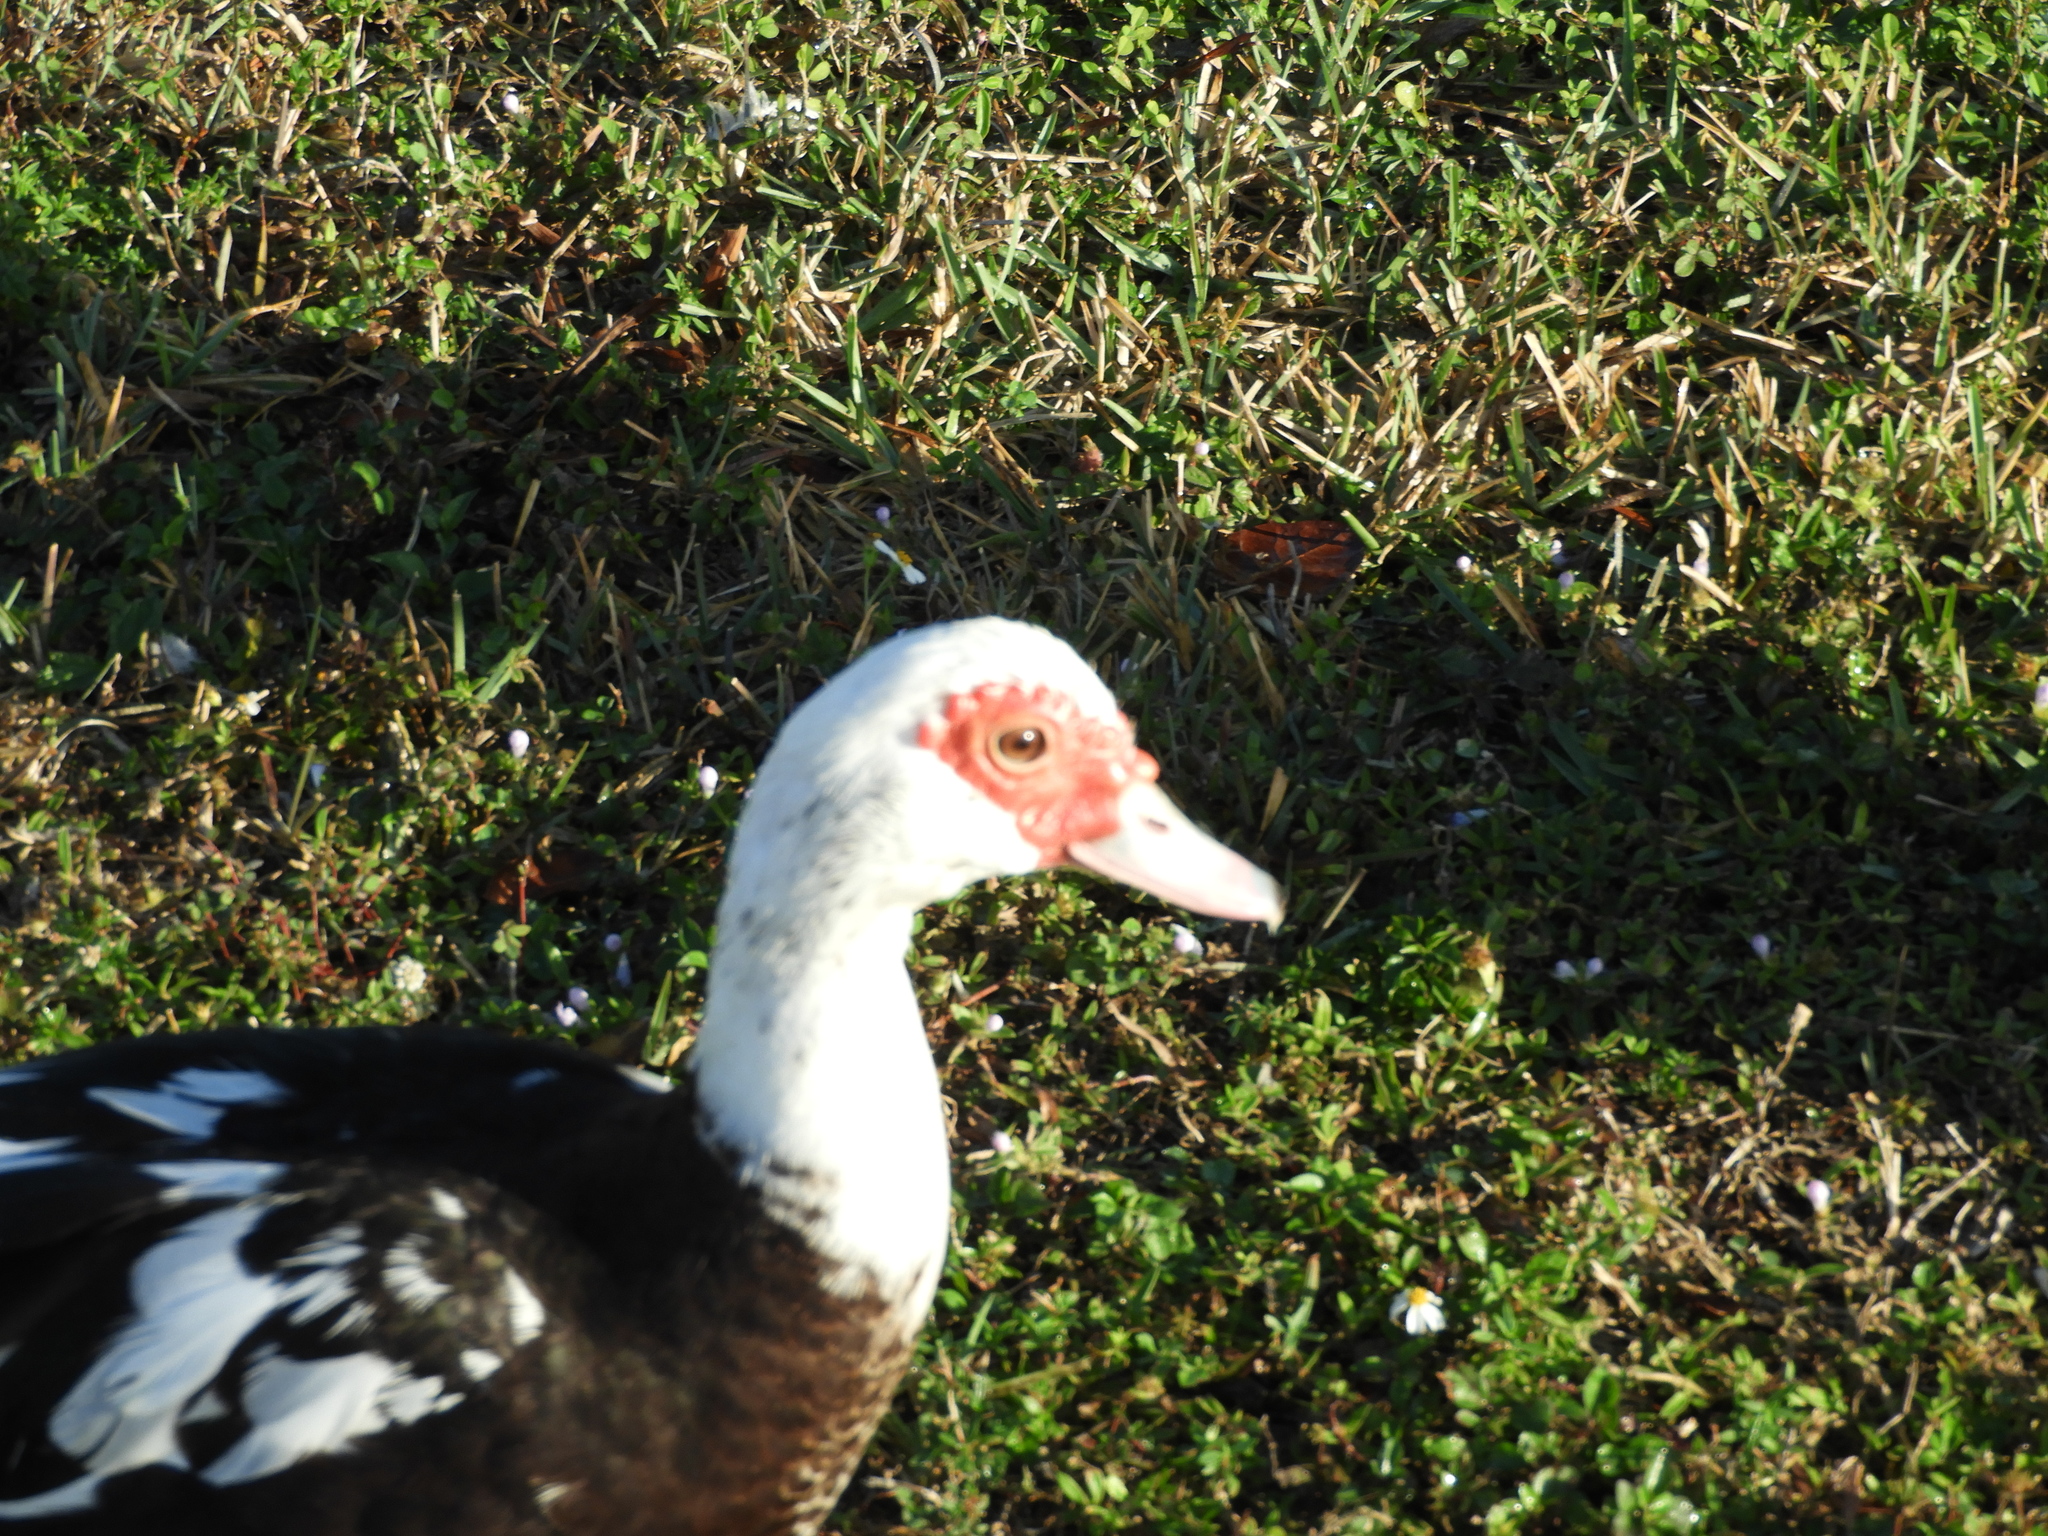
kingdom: Animalia
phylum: Chordata
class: Aves
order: Anseriformes
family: Anatidae
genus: Cairina
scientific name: Cairina moschata
